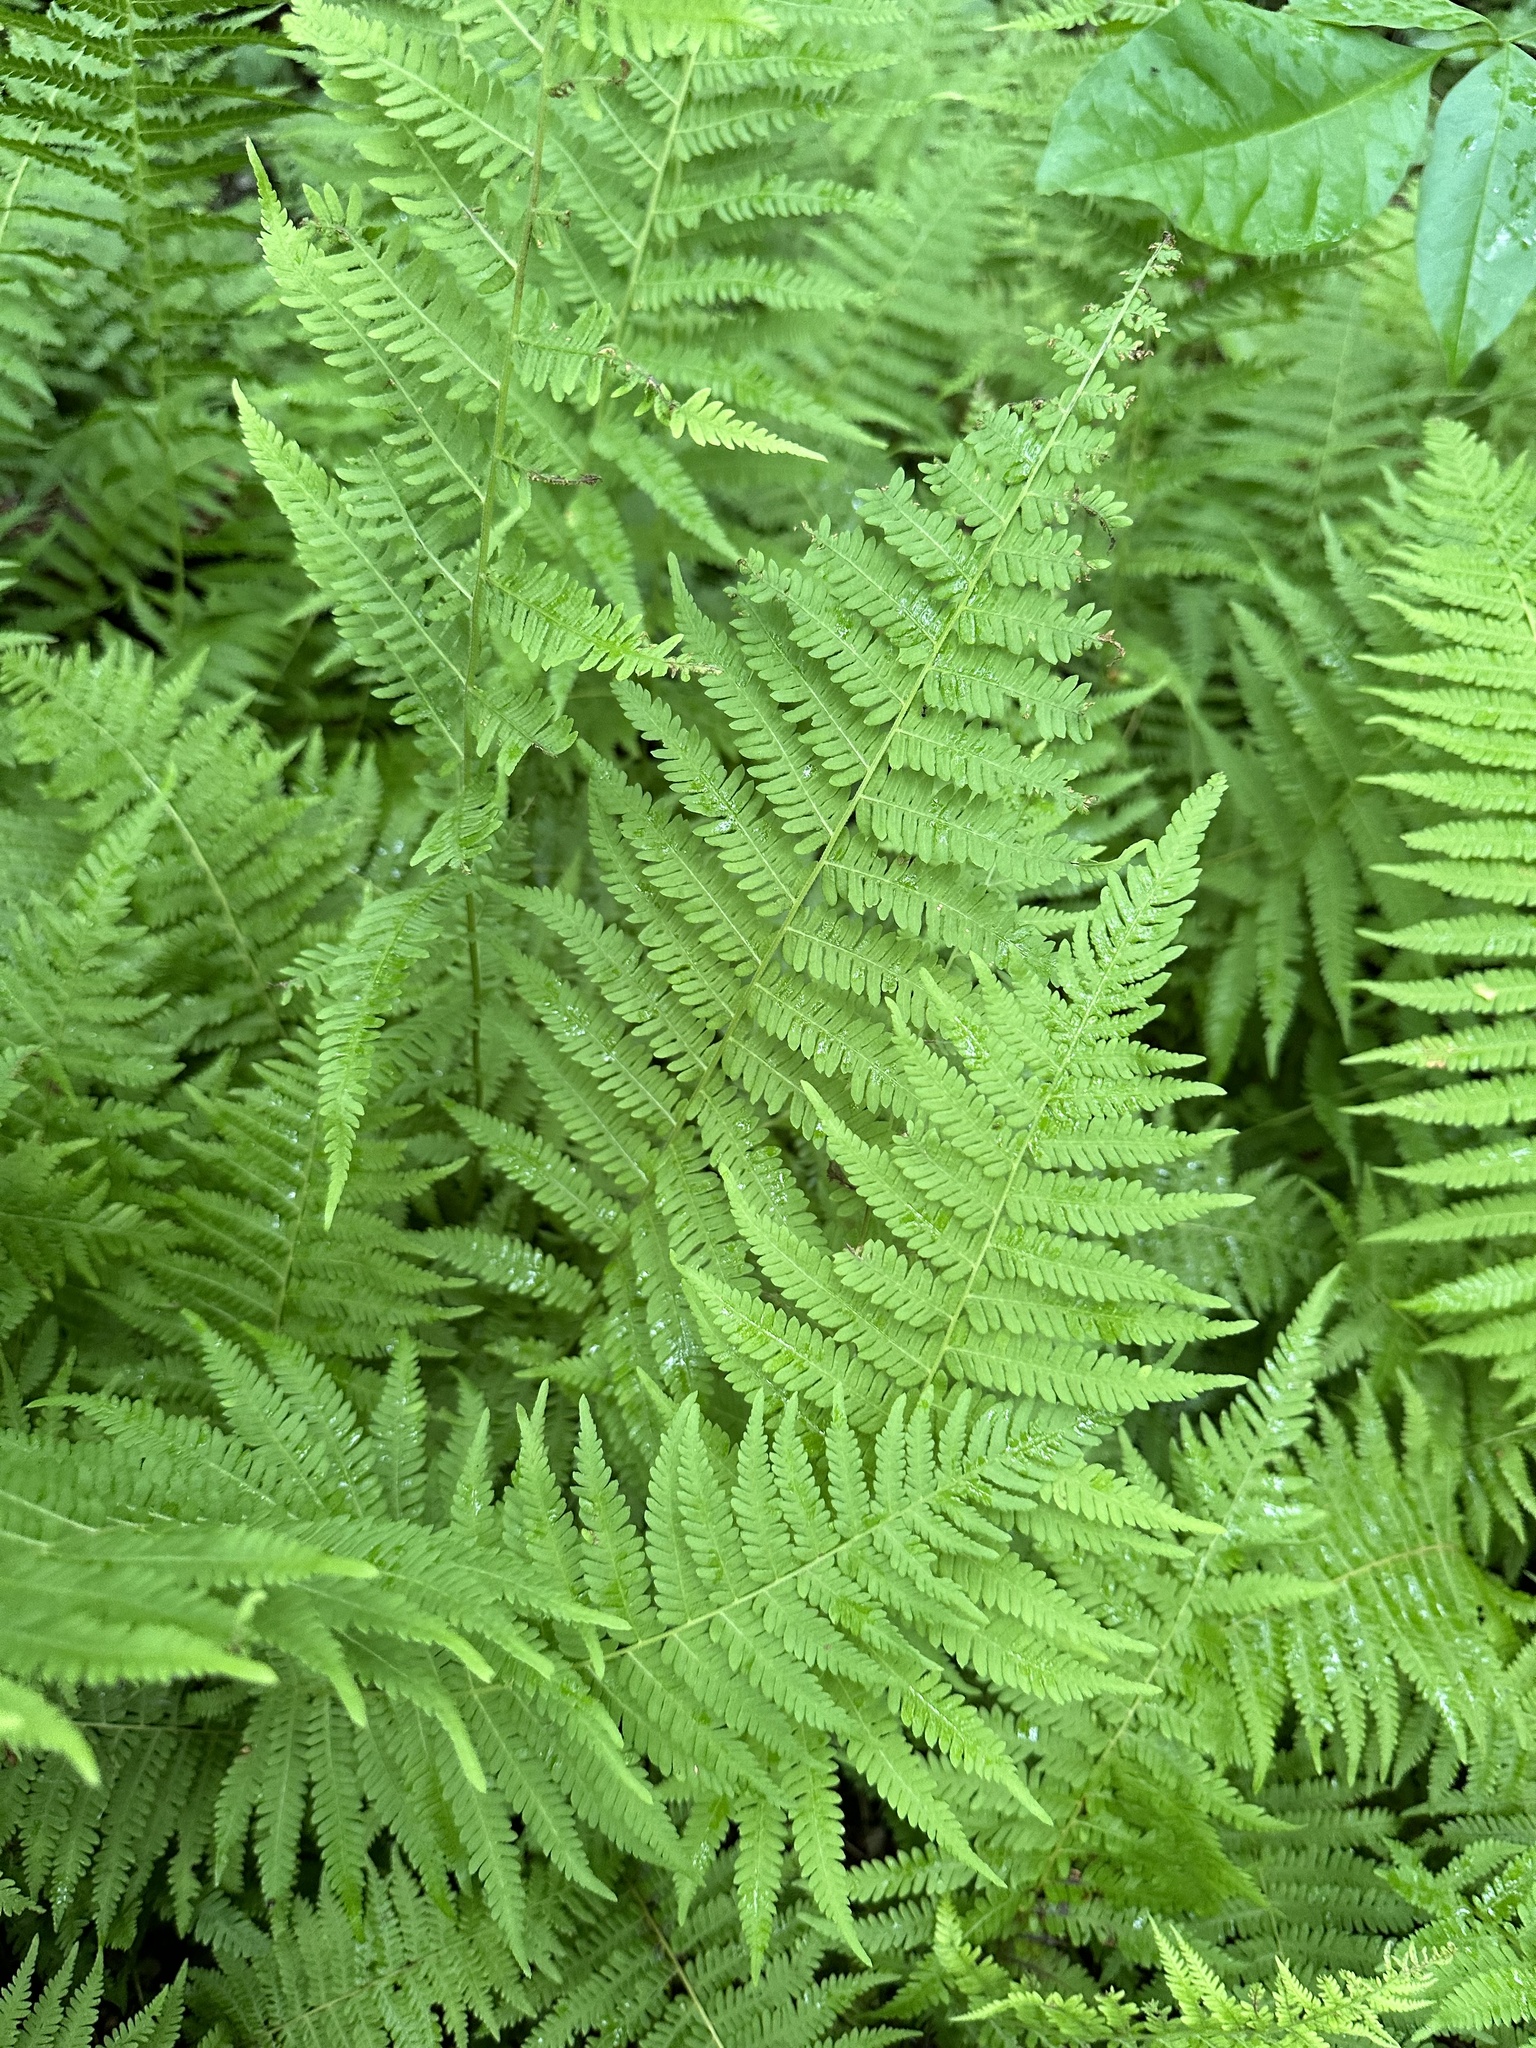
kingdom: Plantae
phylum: Tracheophyta
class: Polypodiopsida
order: Polypodiales
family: Thelypteridaceae
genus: Amauropelta
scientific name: Amauropelta noveboracensis
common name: New york fern
